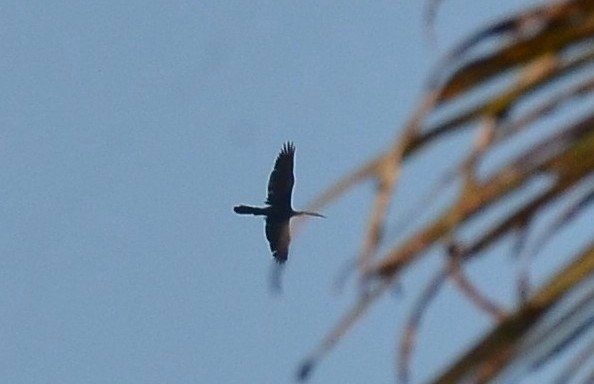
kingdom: Animalia
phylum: Chordata
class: Aves
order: Suliformes
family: Anhingidae
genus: Anhinga
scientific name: Anhinga melanogaster
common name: Oriental darter
